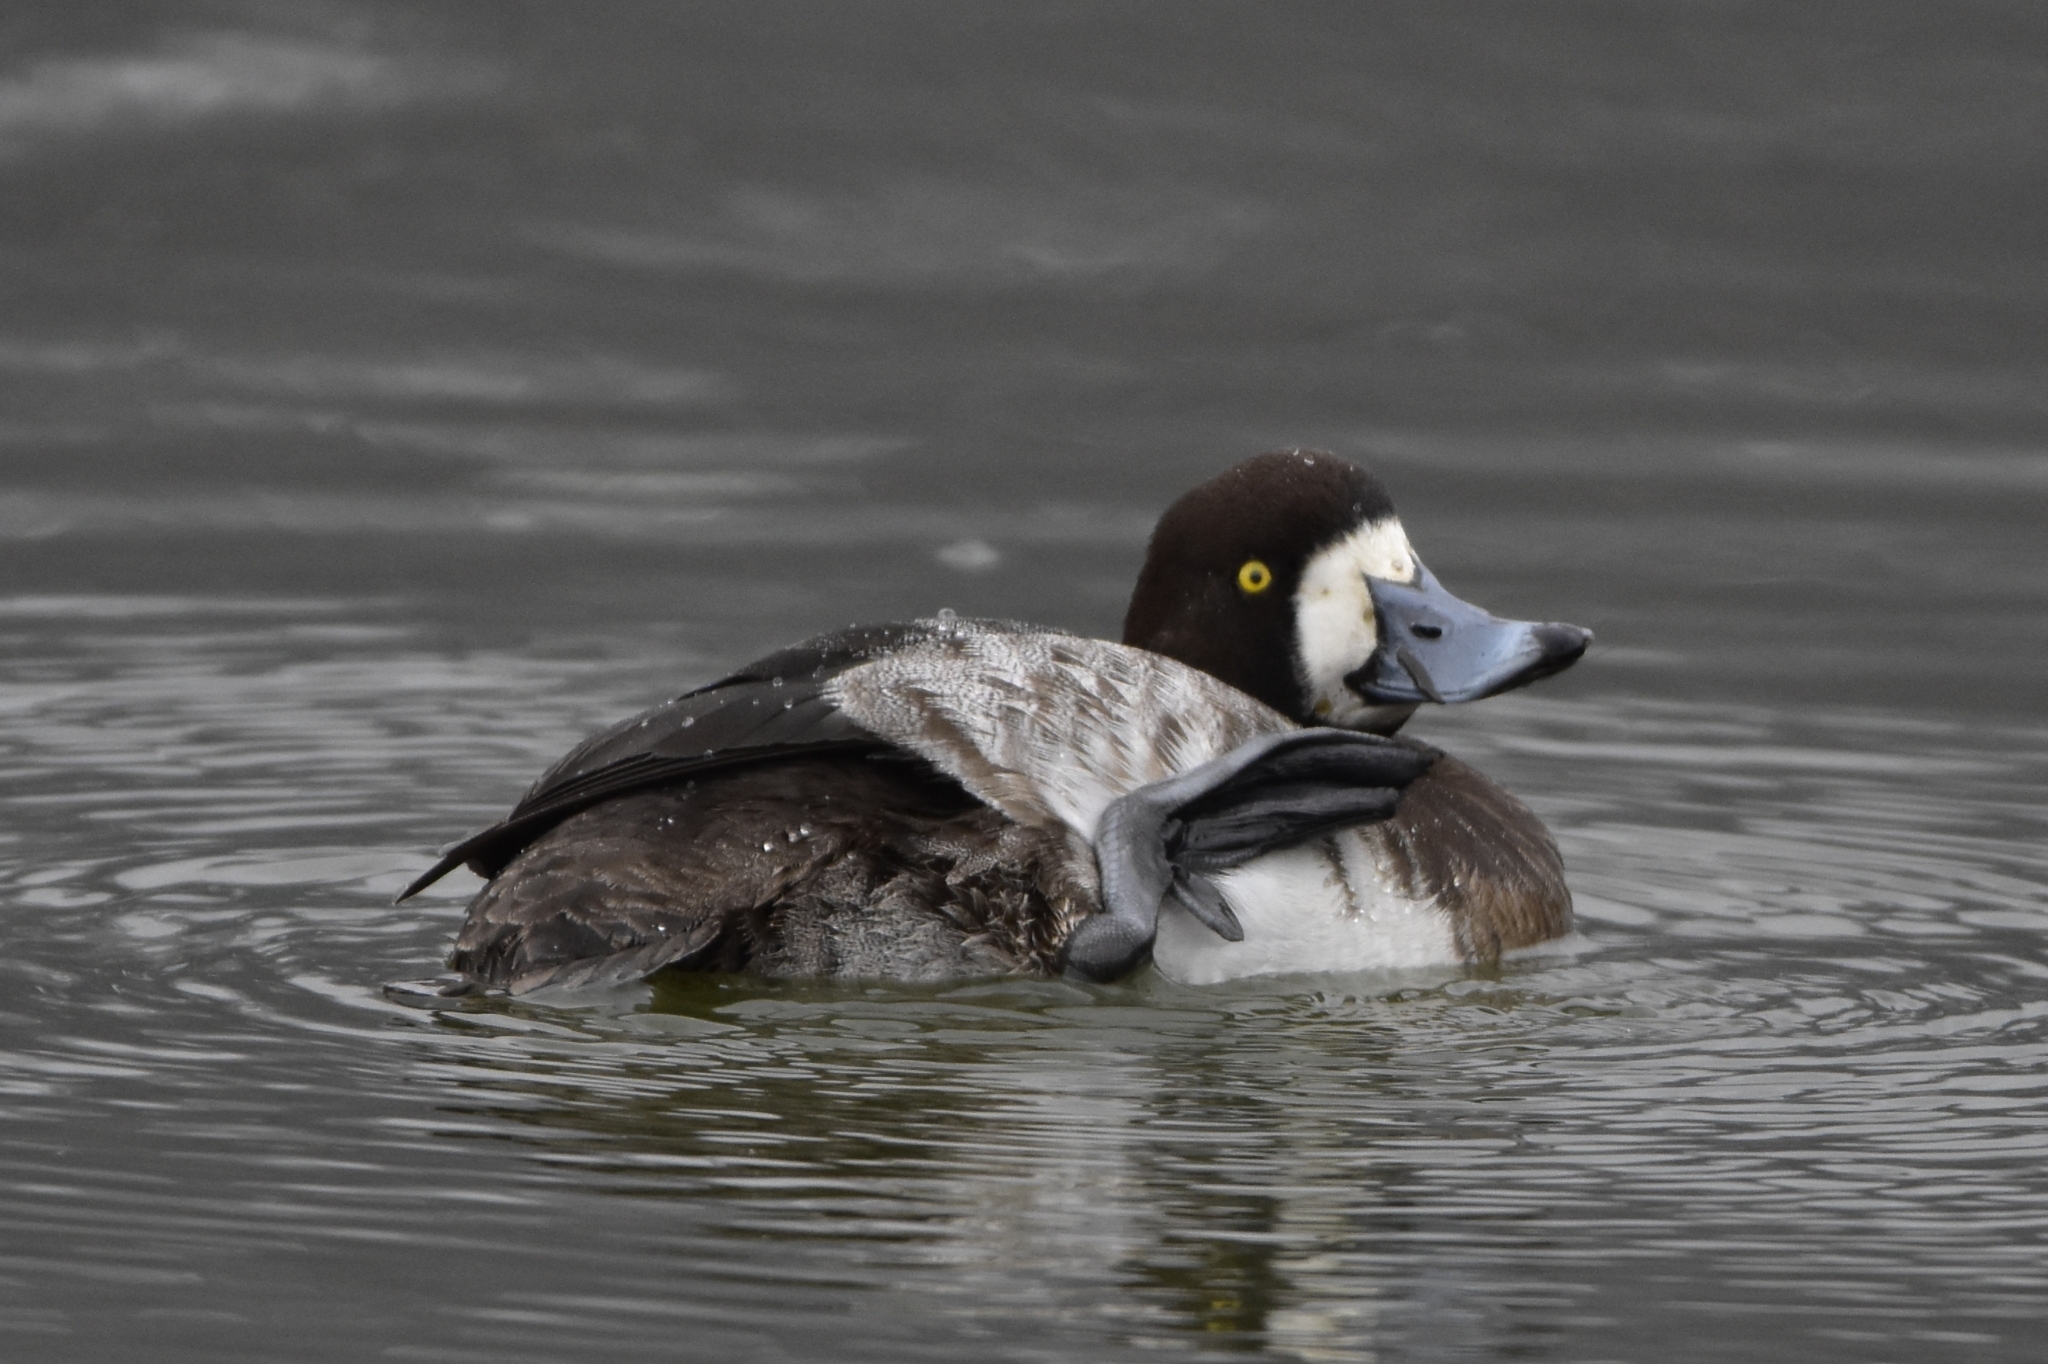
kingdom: Animalia
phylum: Chordata
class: Aves
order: Anseriformes
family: Anatidae
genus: Aythya
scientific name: Aythya marila
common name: Greater scaup
